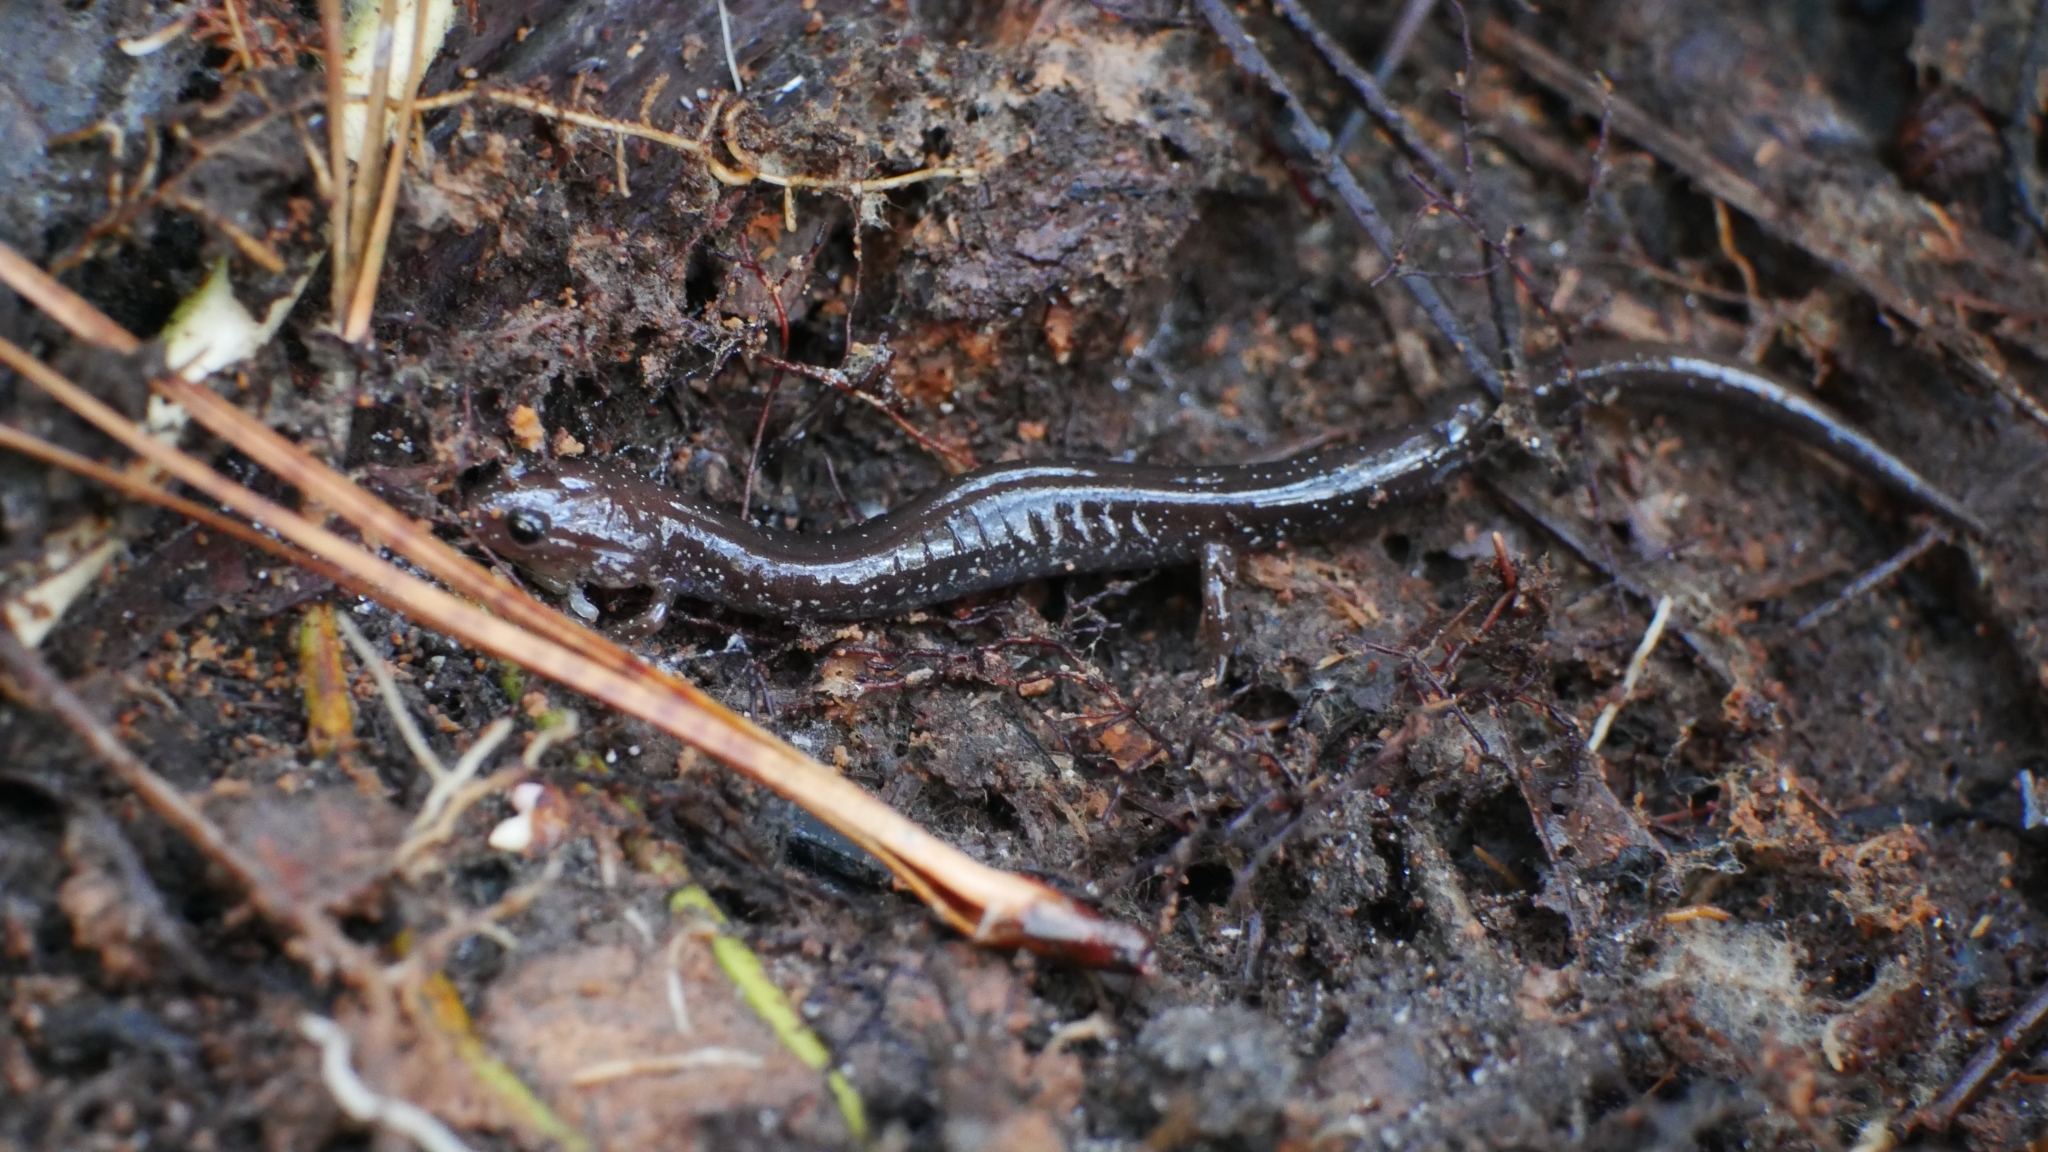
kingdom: Animalia
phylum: Chordata
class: Amphibia
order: Caudata
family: Plethodontidae
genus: Plethodon
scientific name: Plethodon cinereus
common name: Redback salamander
